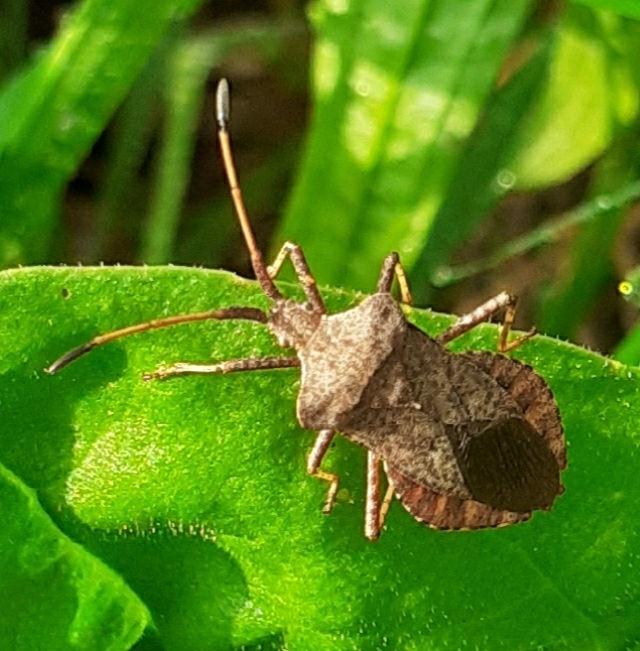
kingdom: Animalia
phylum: Arthropoda
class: Insecta
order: Hemiptera
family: Coreidae
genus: Coreus
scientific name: Coreus marginatus
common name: Dock bug
